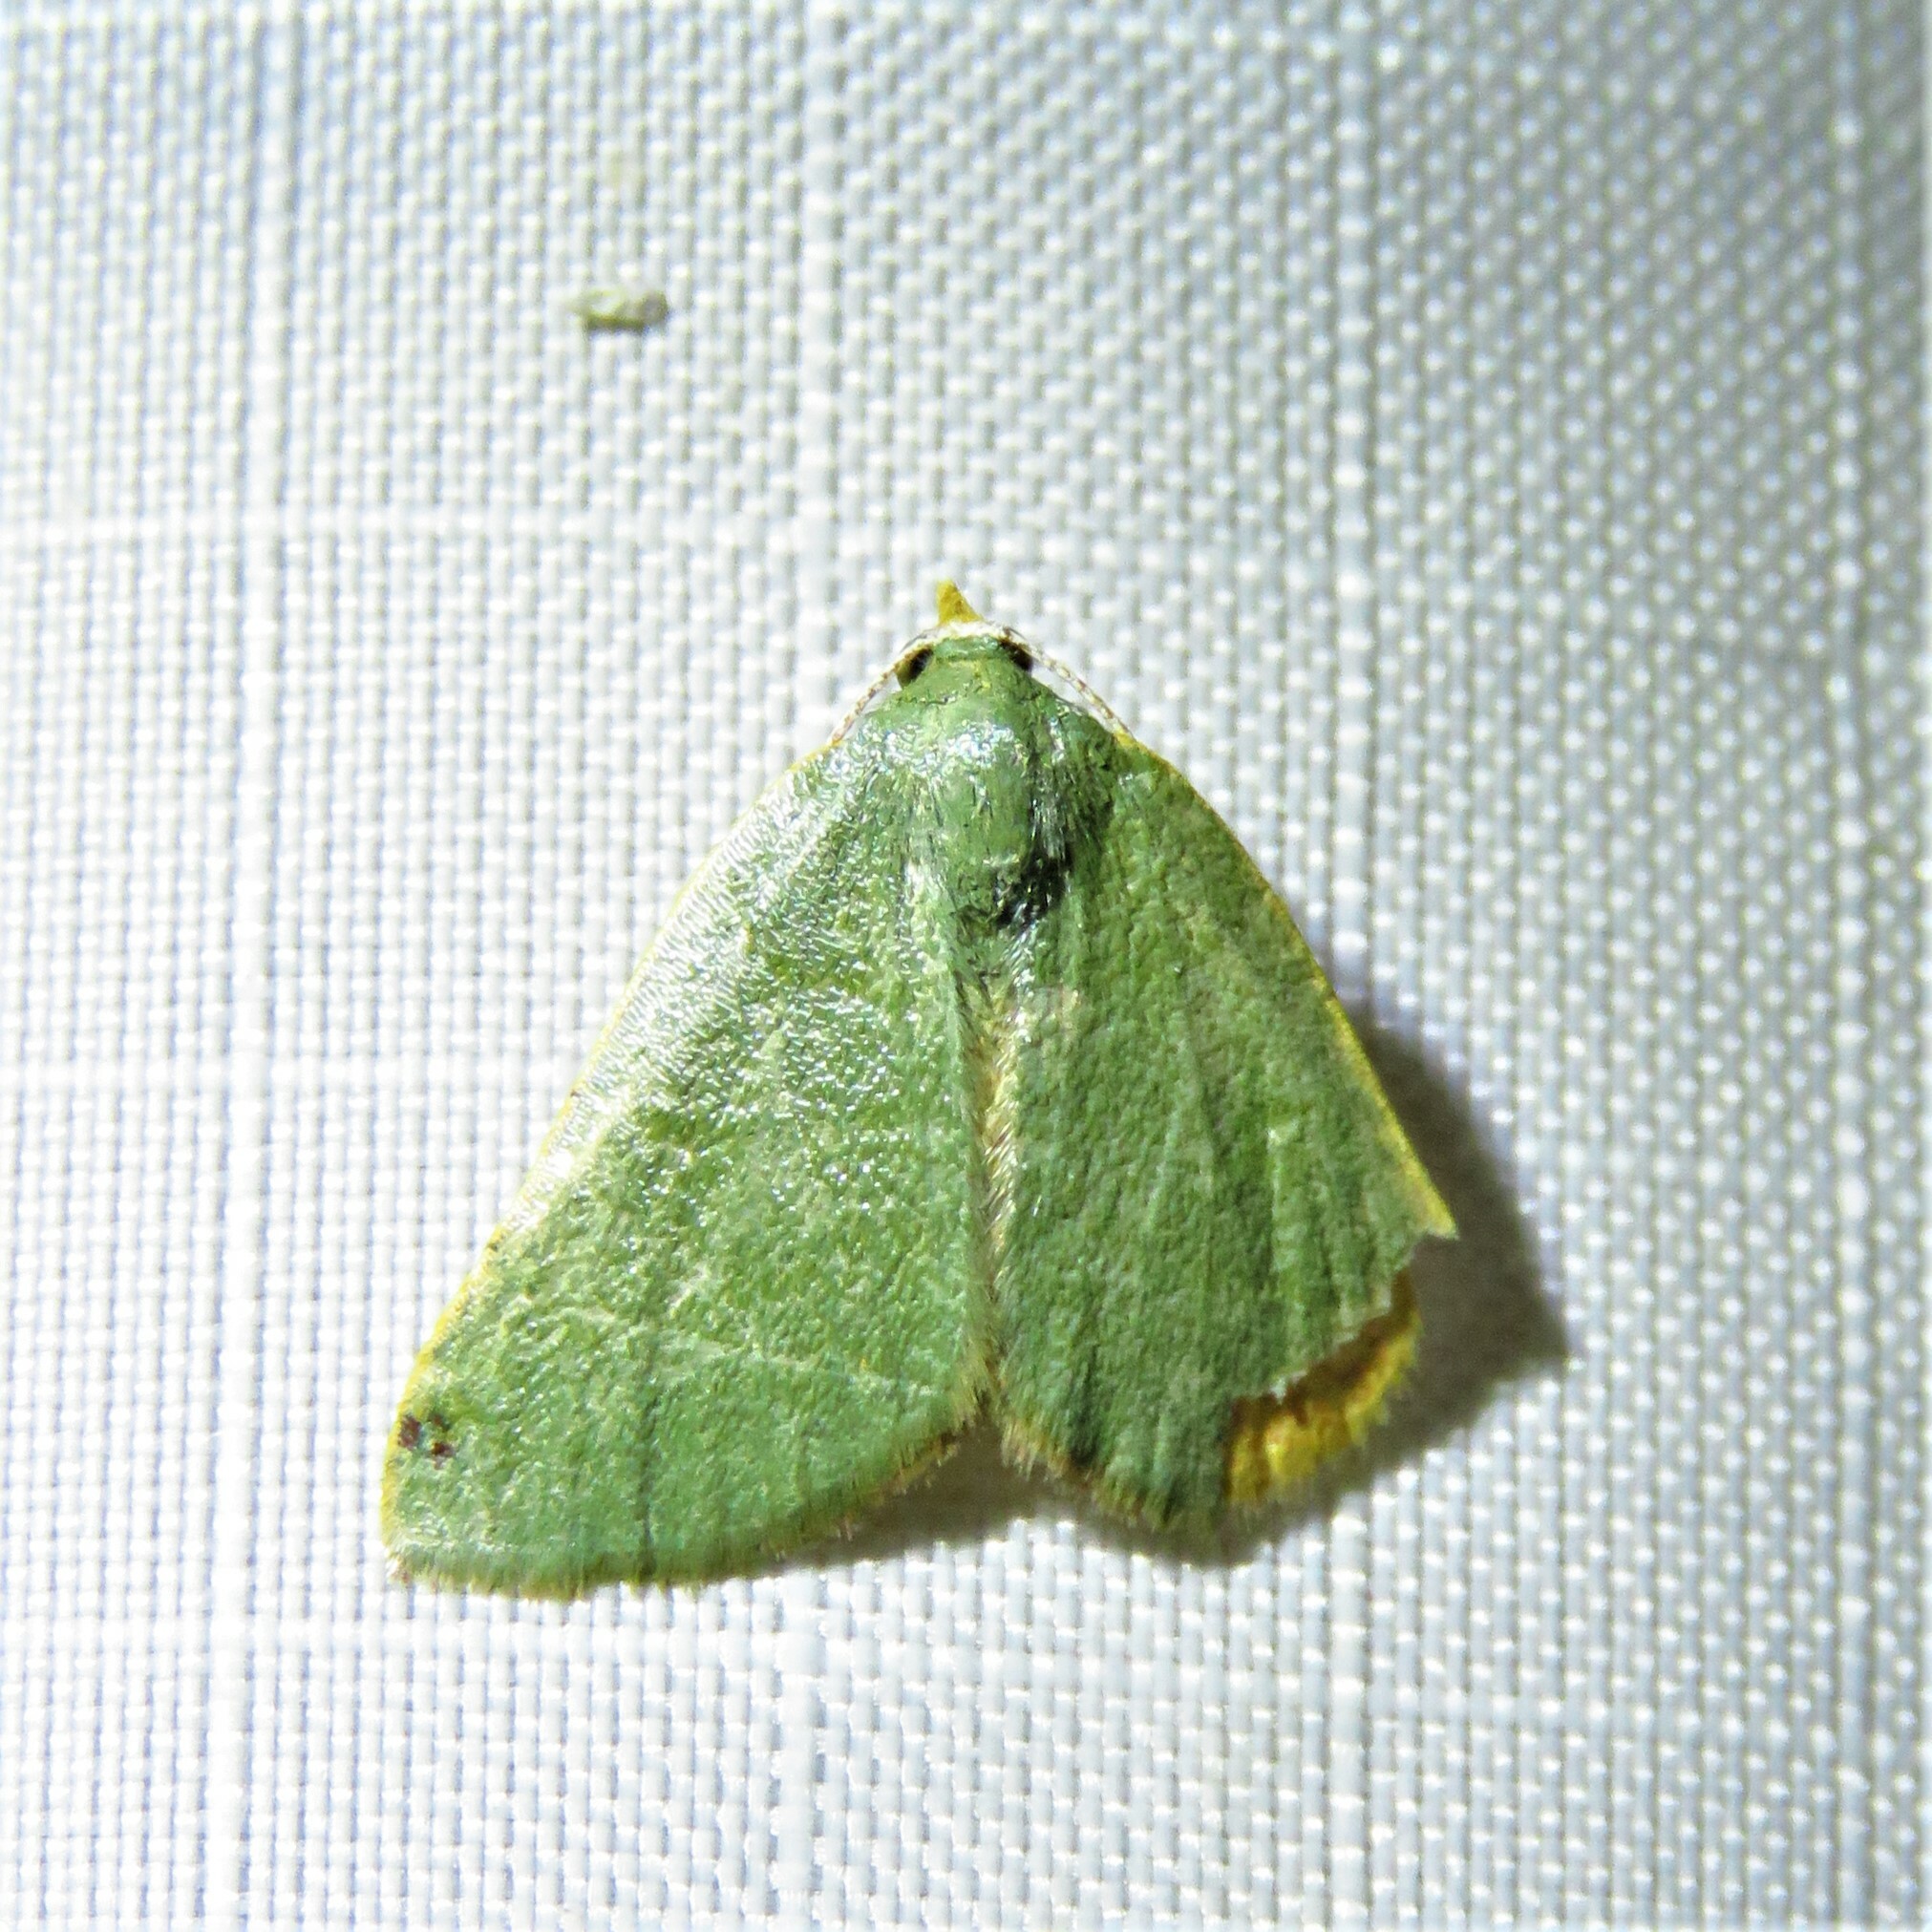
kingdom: Animalia
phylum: Arthropoda
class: Insecta
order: Lepidoptera
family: Geometridae
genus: Chloraspilates
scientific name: Chloraspilates bicoloraria
